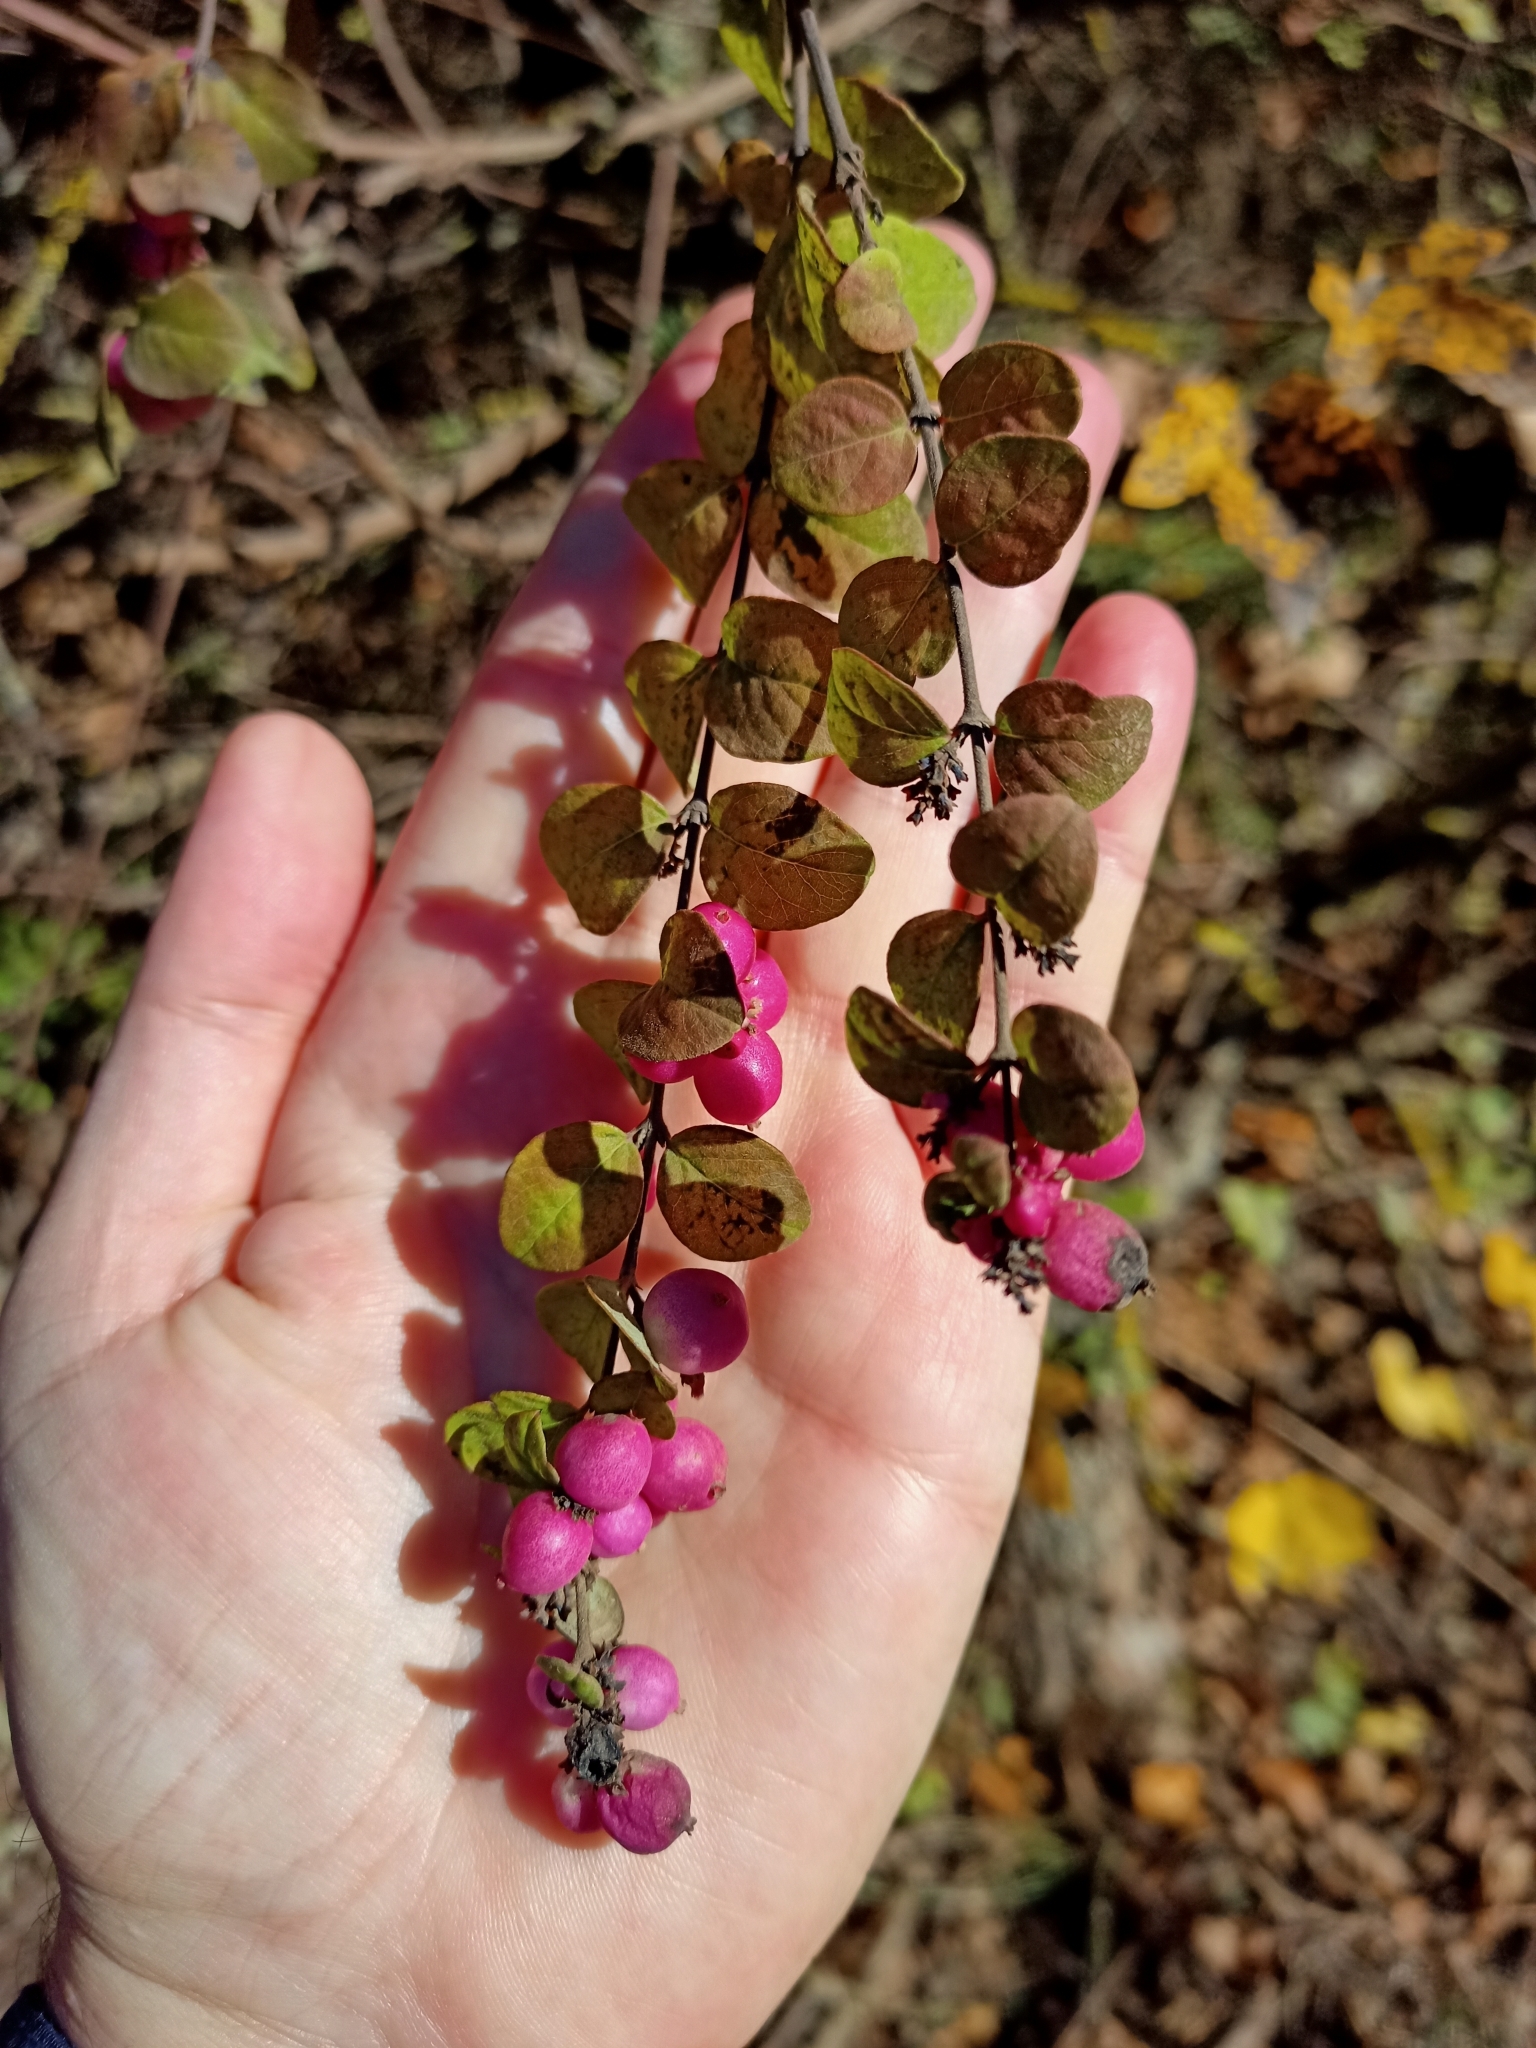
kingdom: Plantae
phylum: Tracheophyta
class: Magnoliopsida
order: Dipsacales
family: Caprifoliaceae
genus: Symphoricarpos
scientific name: Symphoricarpos orbiculatus
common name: Coralberry
